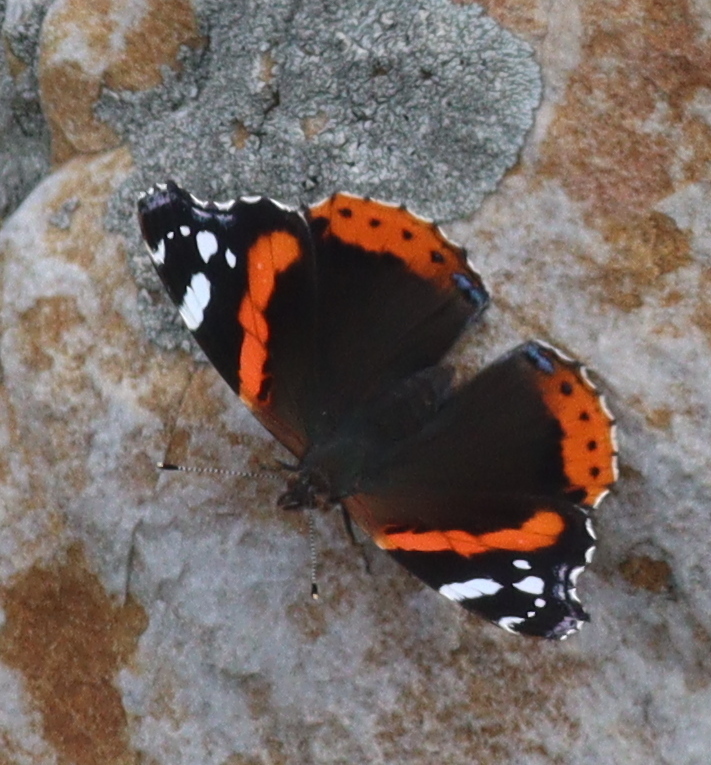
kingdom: Animalia
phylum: Arthropoda
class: Insecta
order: Lepidoptera
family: Nymphalidae
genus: Vanessa
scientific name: Vanessa atalanta
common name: Red admiral
